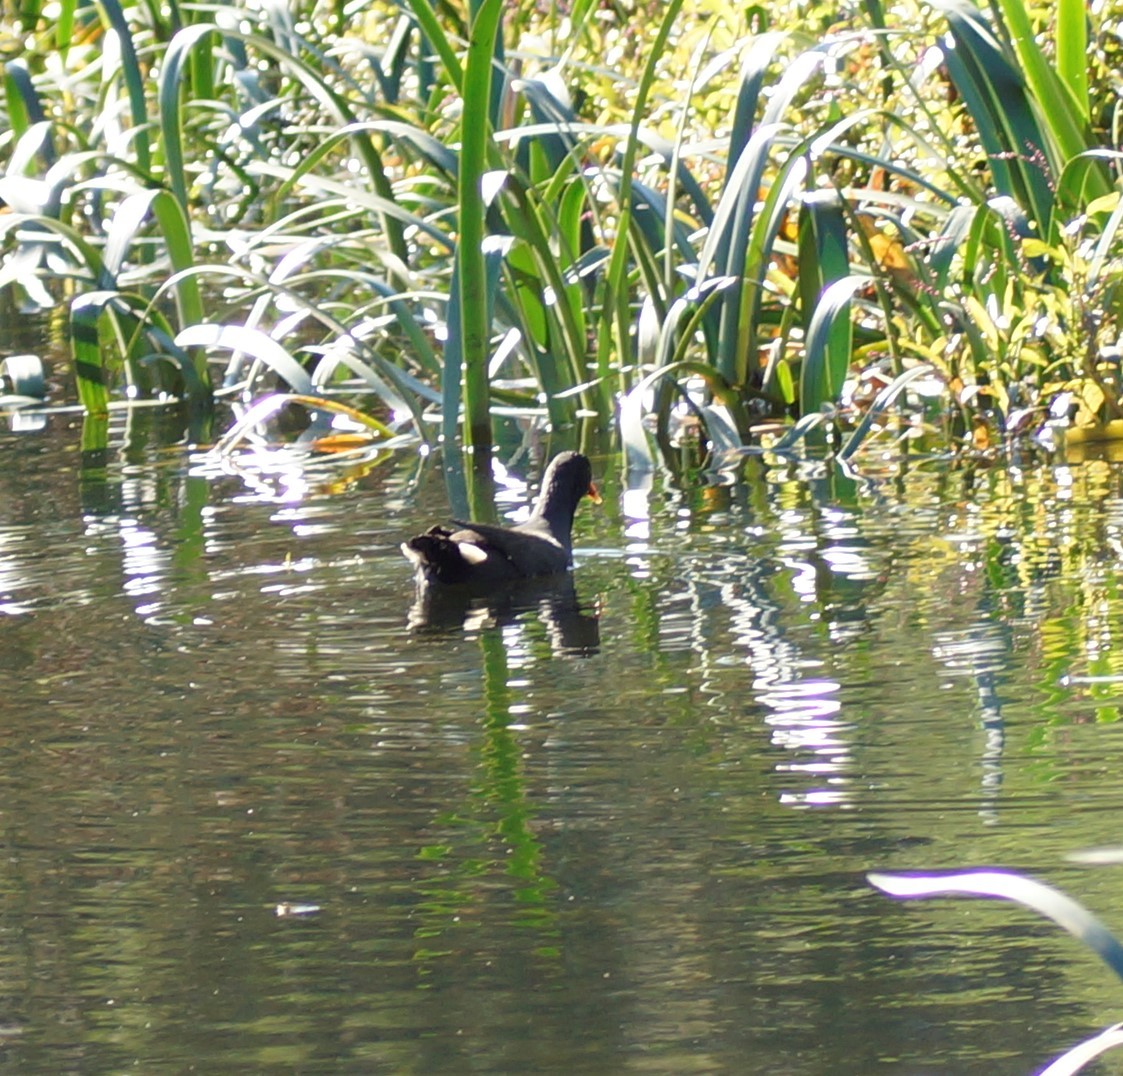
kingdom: Animalia
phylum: Chordata
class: Aves
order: Gruiformes
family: Rallidae
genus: Gallinula
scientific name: Gallinula tenebrosa
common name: Dusky moorhen
